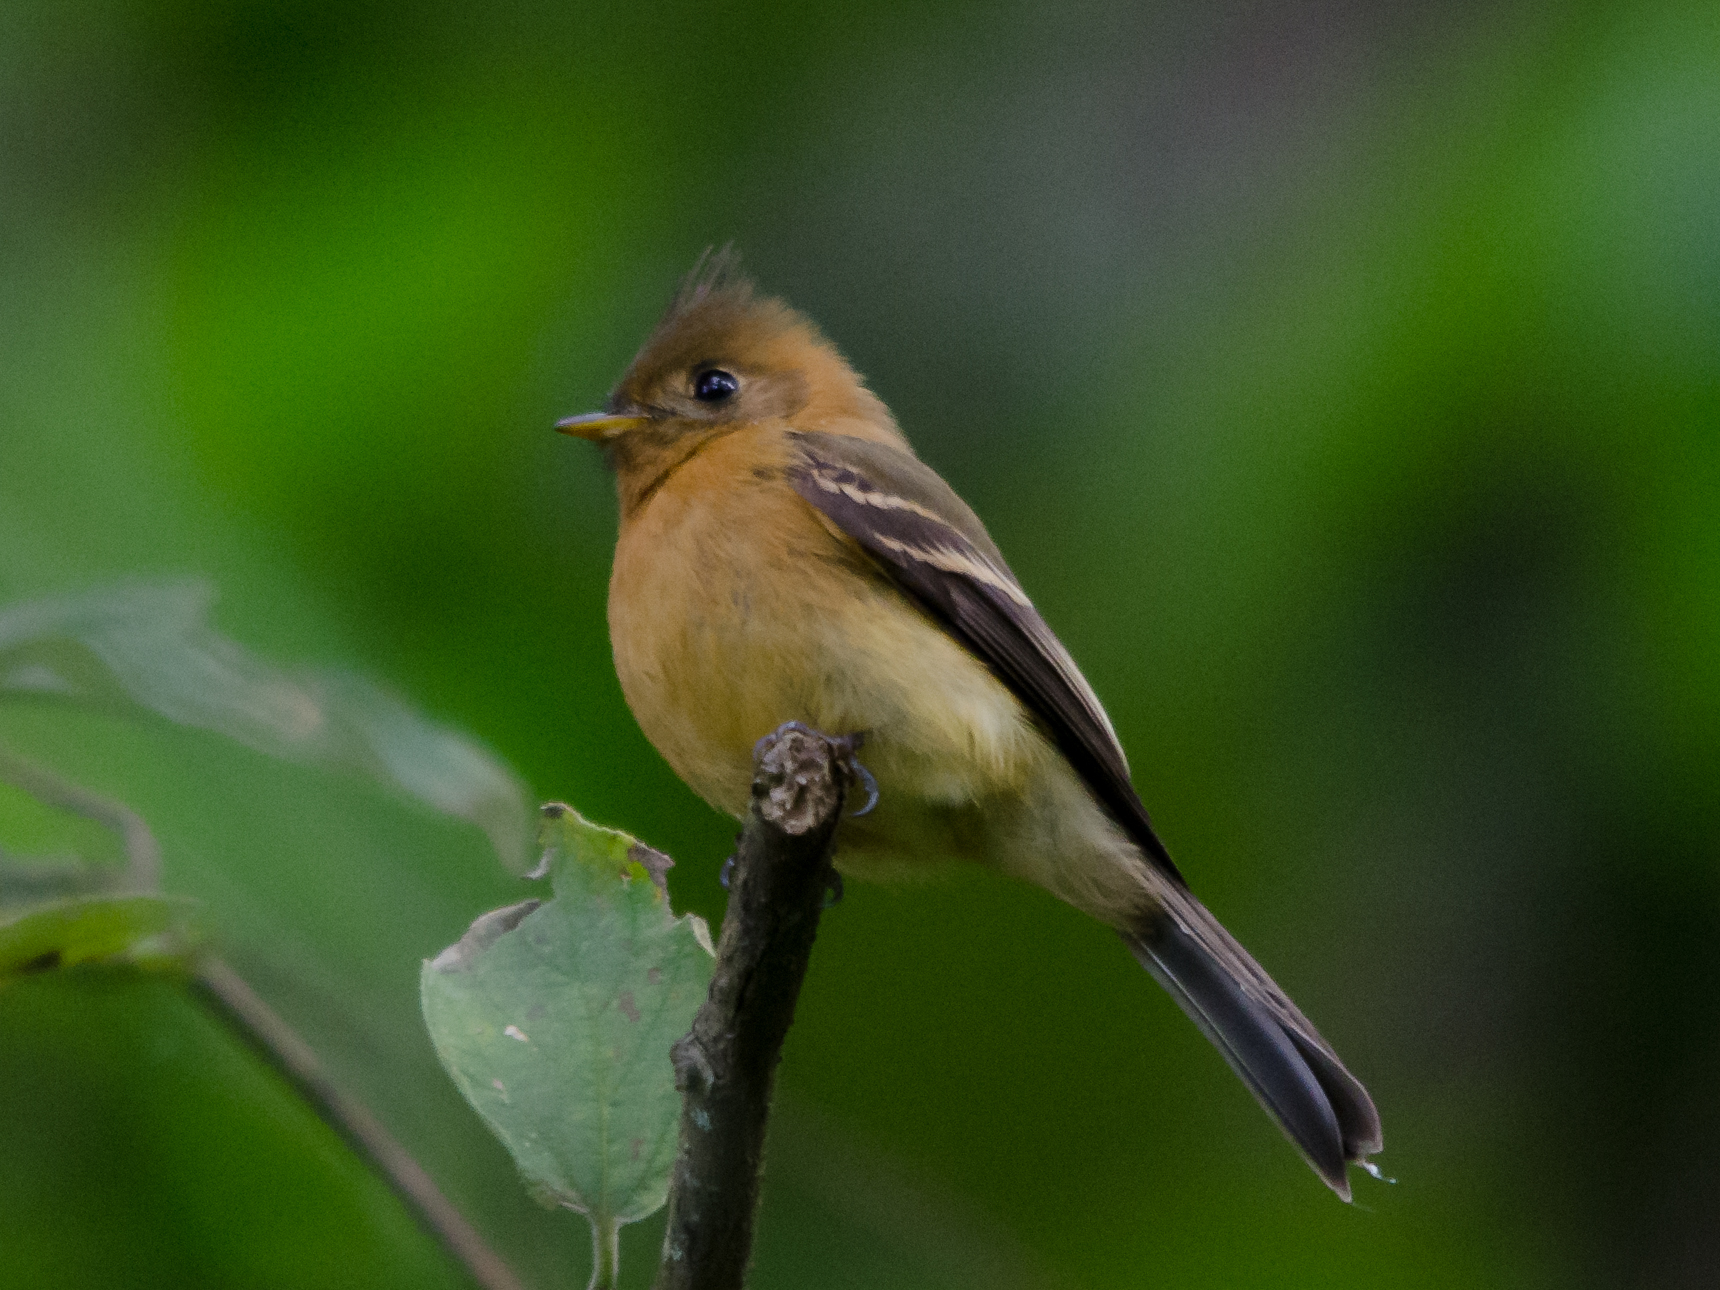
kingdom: Animalia
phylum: Chordata
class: Aves
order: Passeriformes
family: Tyrannidae
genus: Mitrephanes
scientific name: Mitrephanes phaeocercus
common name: Northern tufted flycatcher
